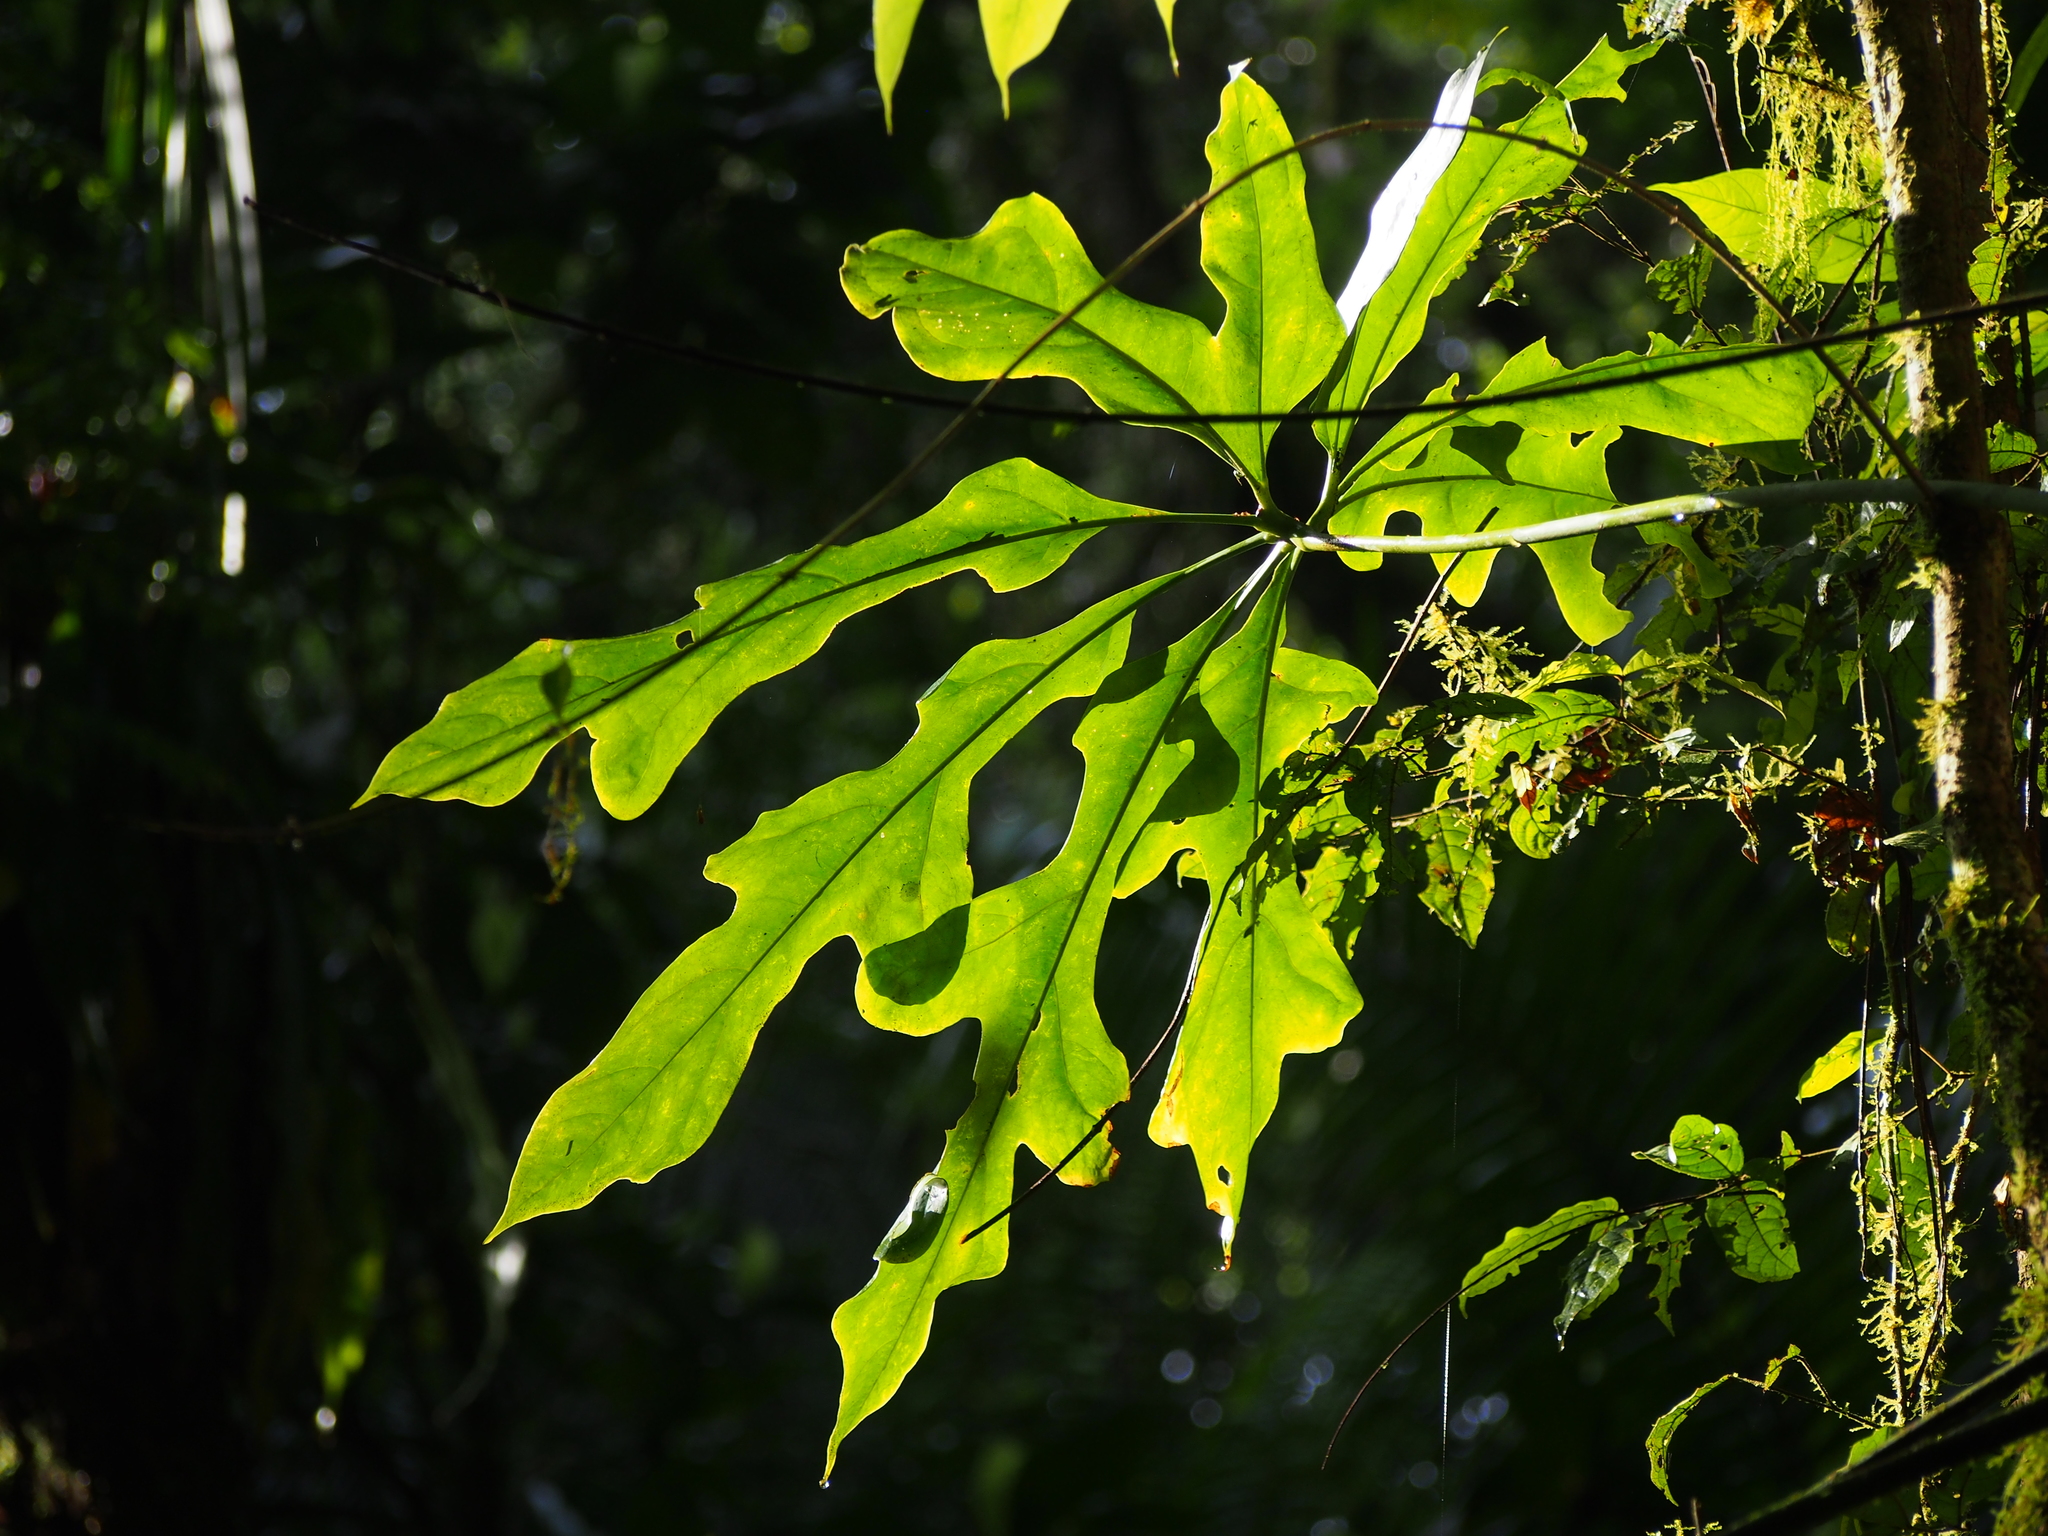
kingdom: Plantae
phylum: Tracheophyta
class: Liliopsida
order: Alismatales
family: Araceae
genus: Anthurium
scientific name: Anthurium clavigerum
